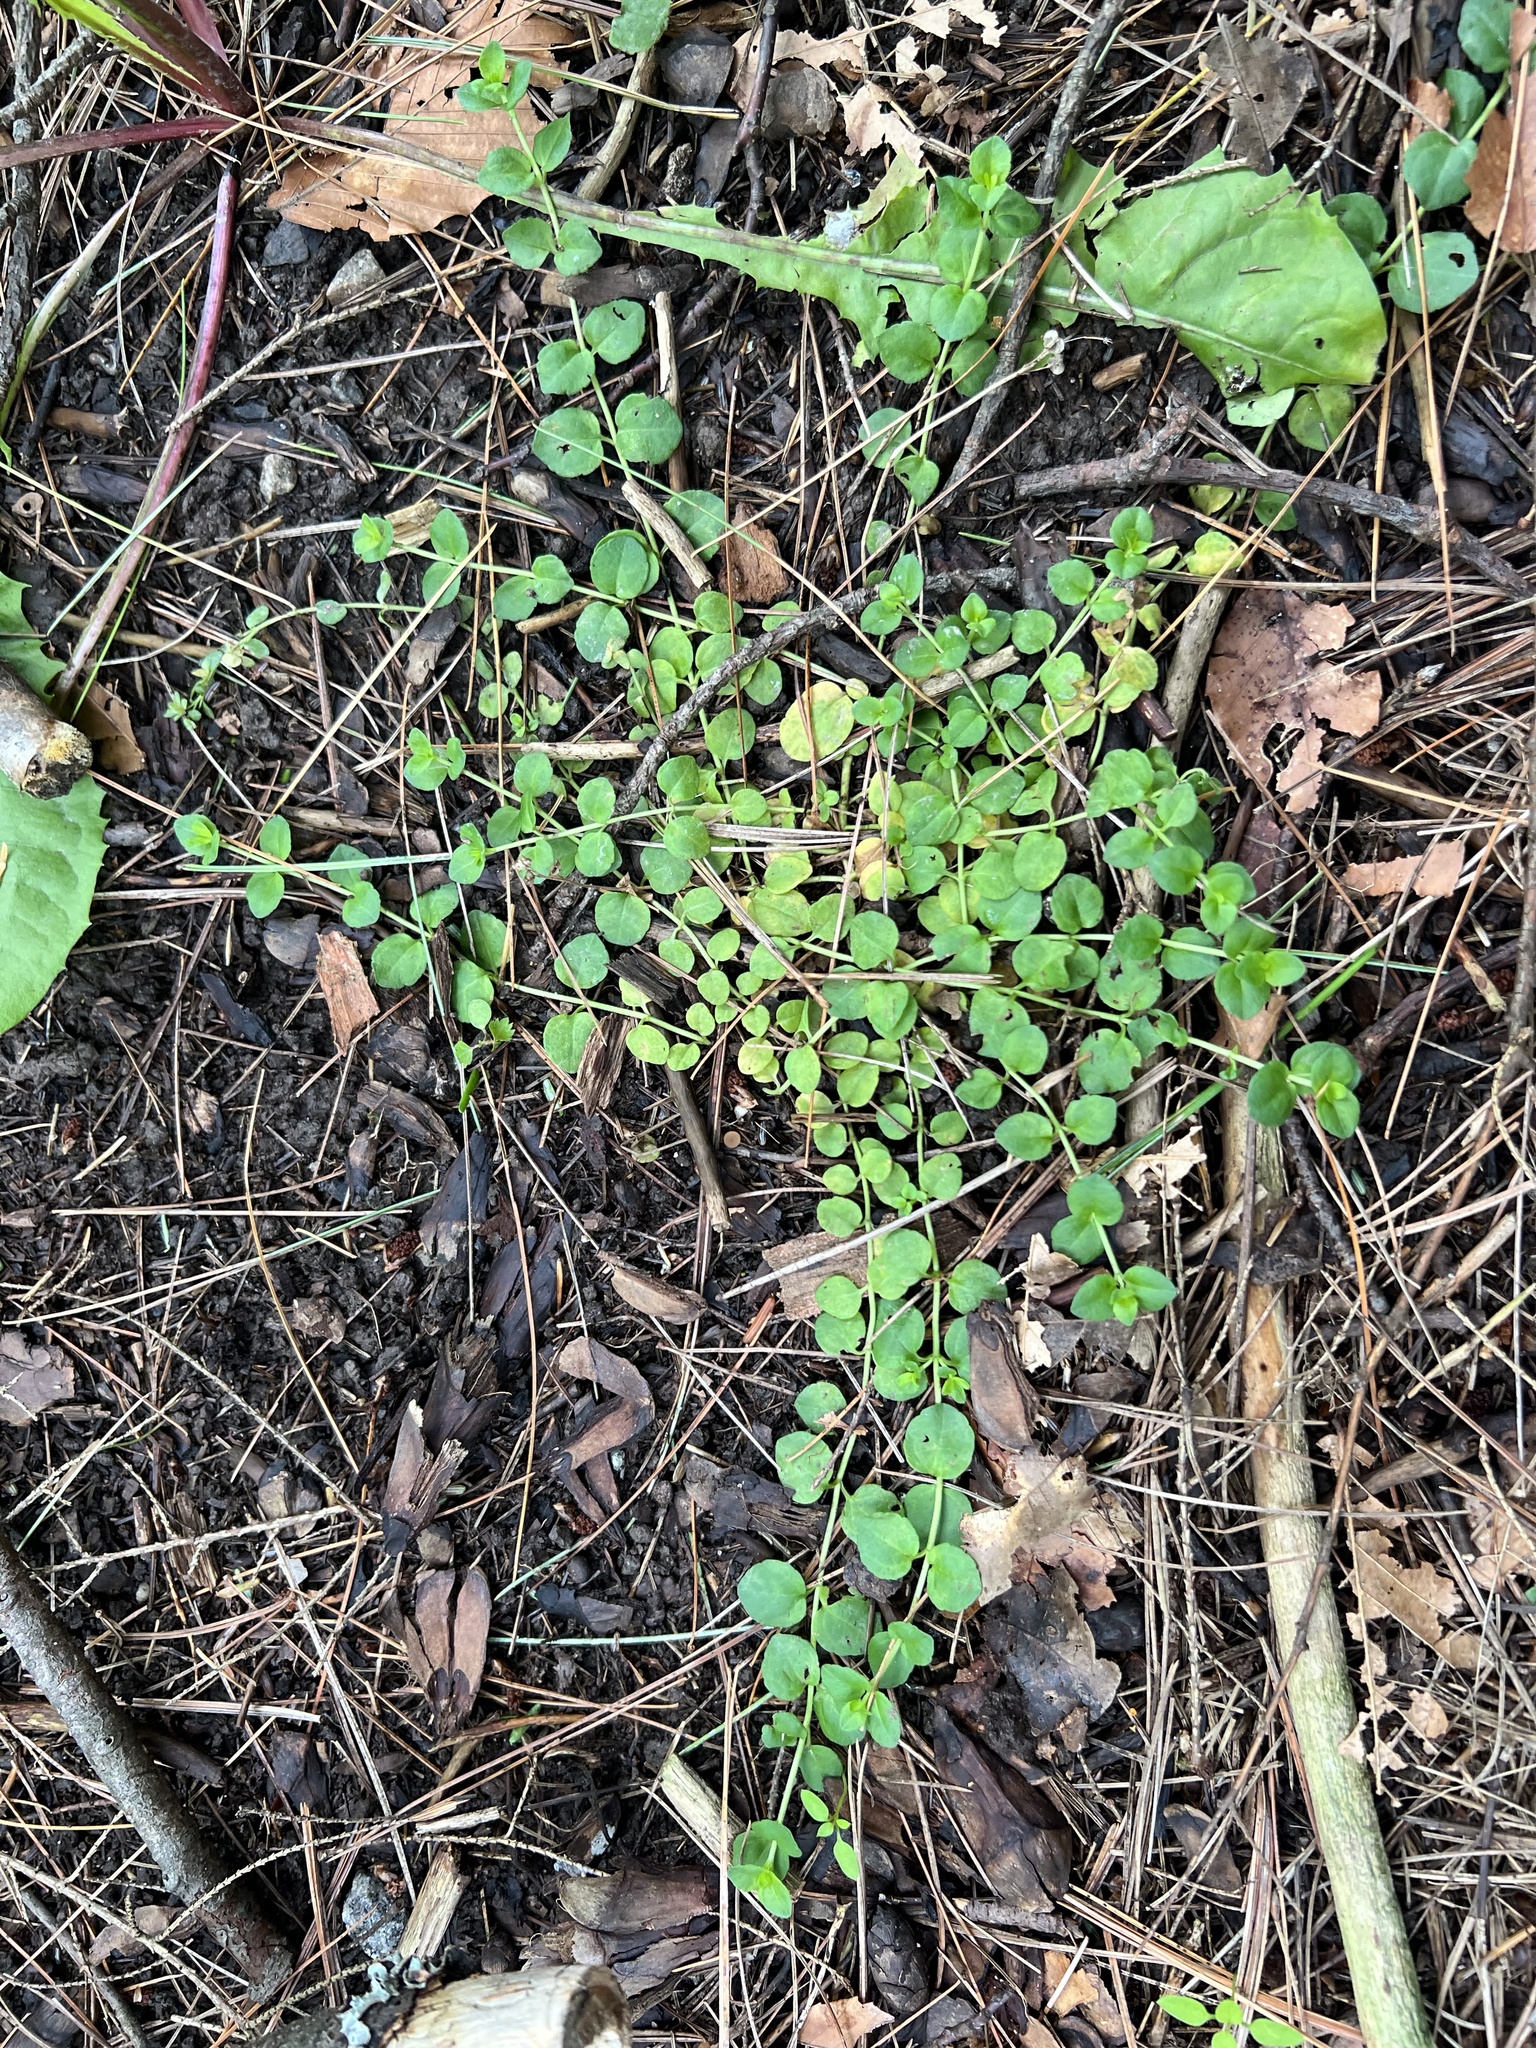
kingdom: Plantae
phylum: Tracheophyta
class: Magnoliopsida
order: Ericales
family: Primulaceae
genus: Lysimachia
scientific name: Lysimachia nummularia
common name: Moneywort
